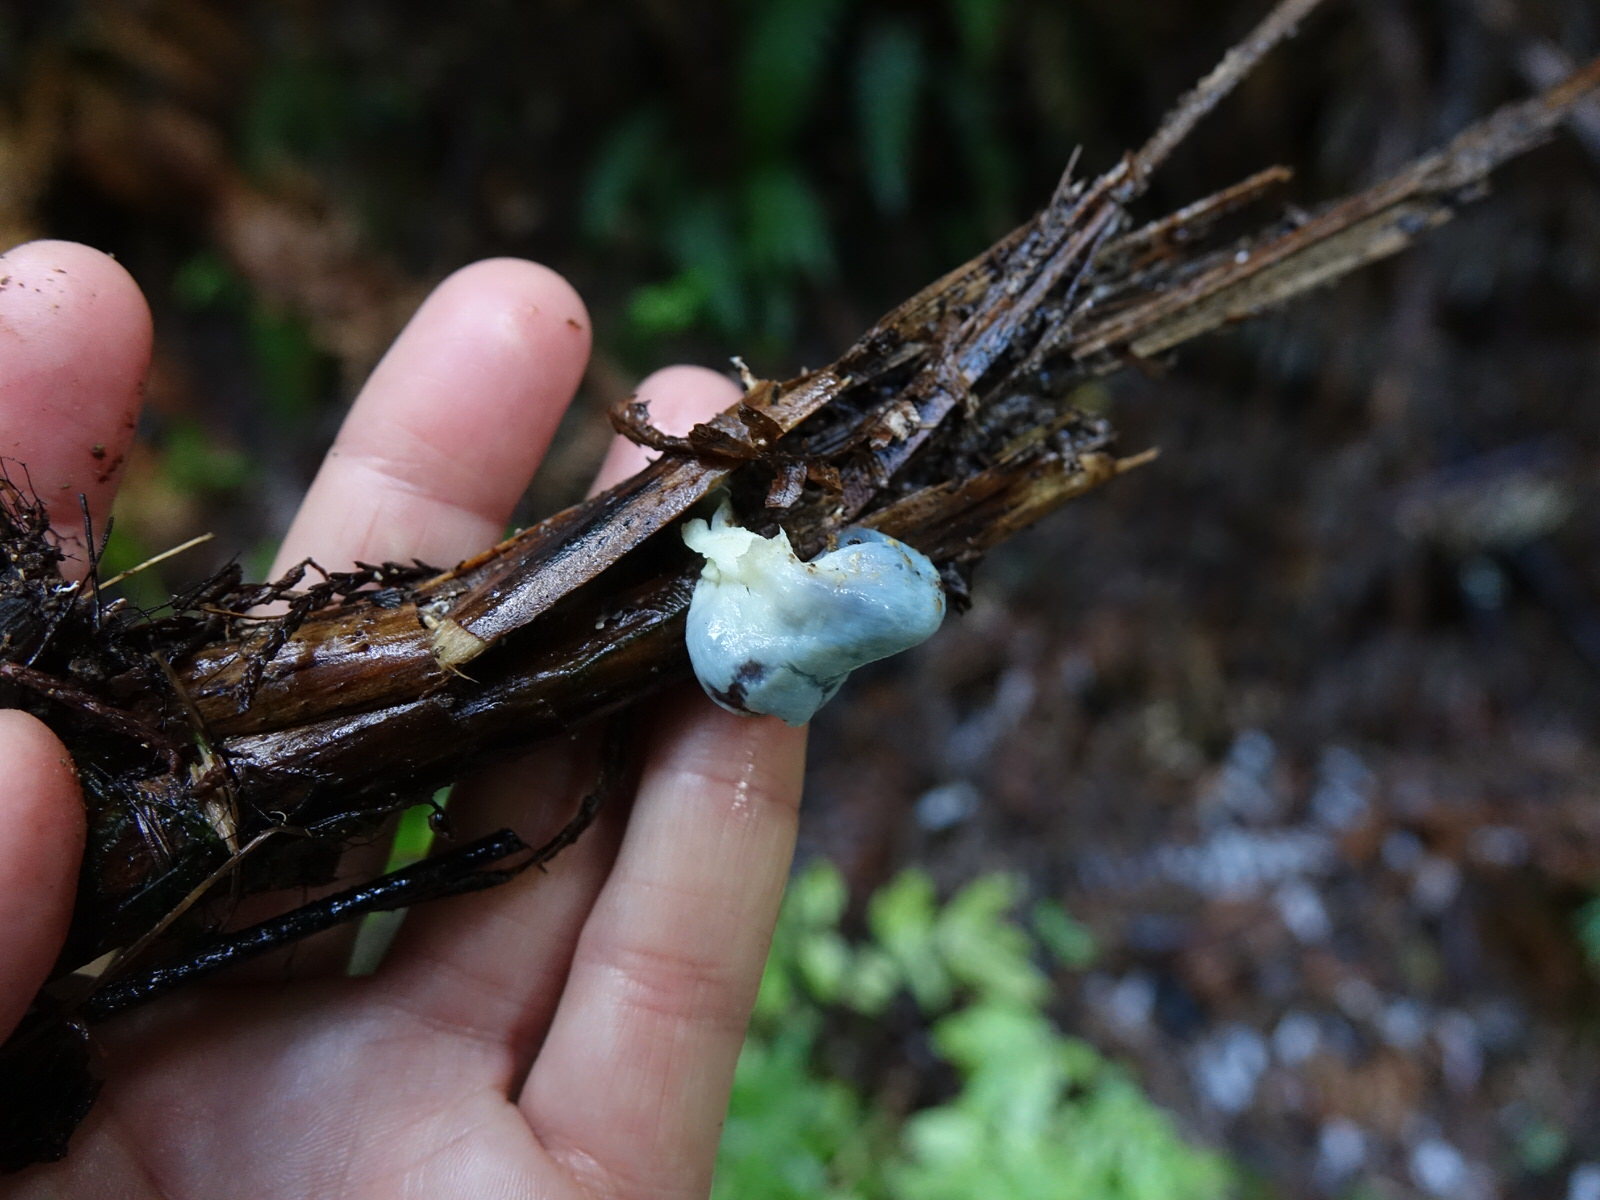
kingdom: Fungi
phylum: Basidiomycota
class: Agaricomycetes
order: Agaricales
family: Agaricaceae
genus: Clavogaster
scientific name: Clavogaster virescens
